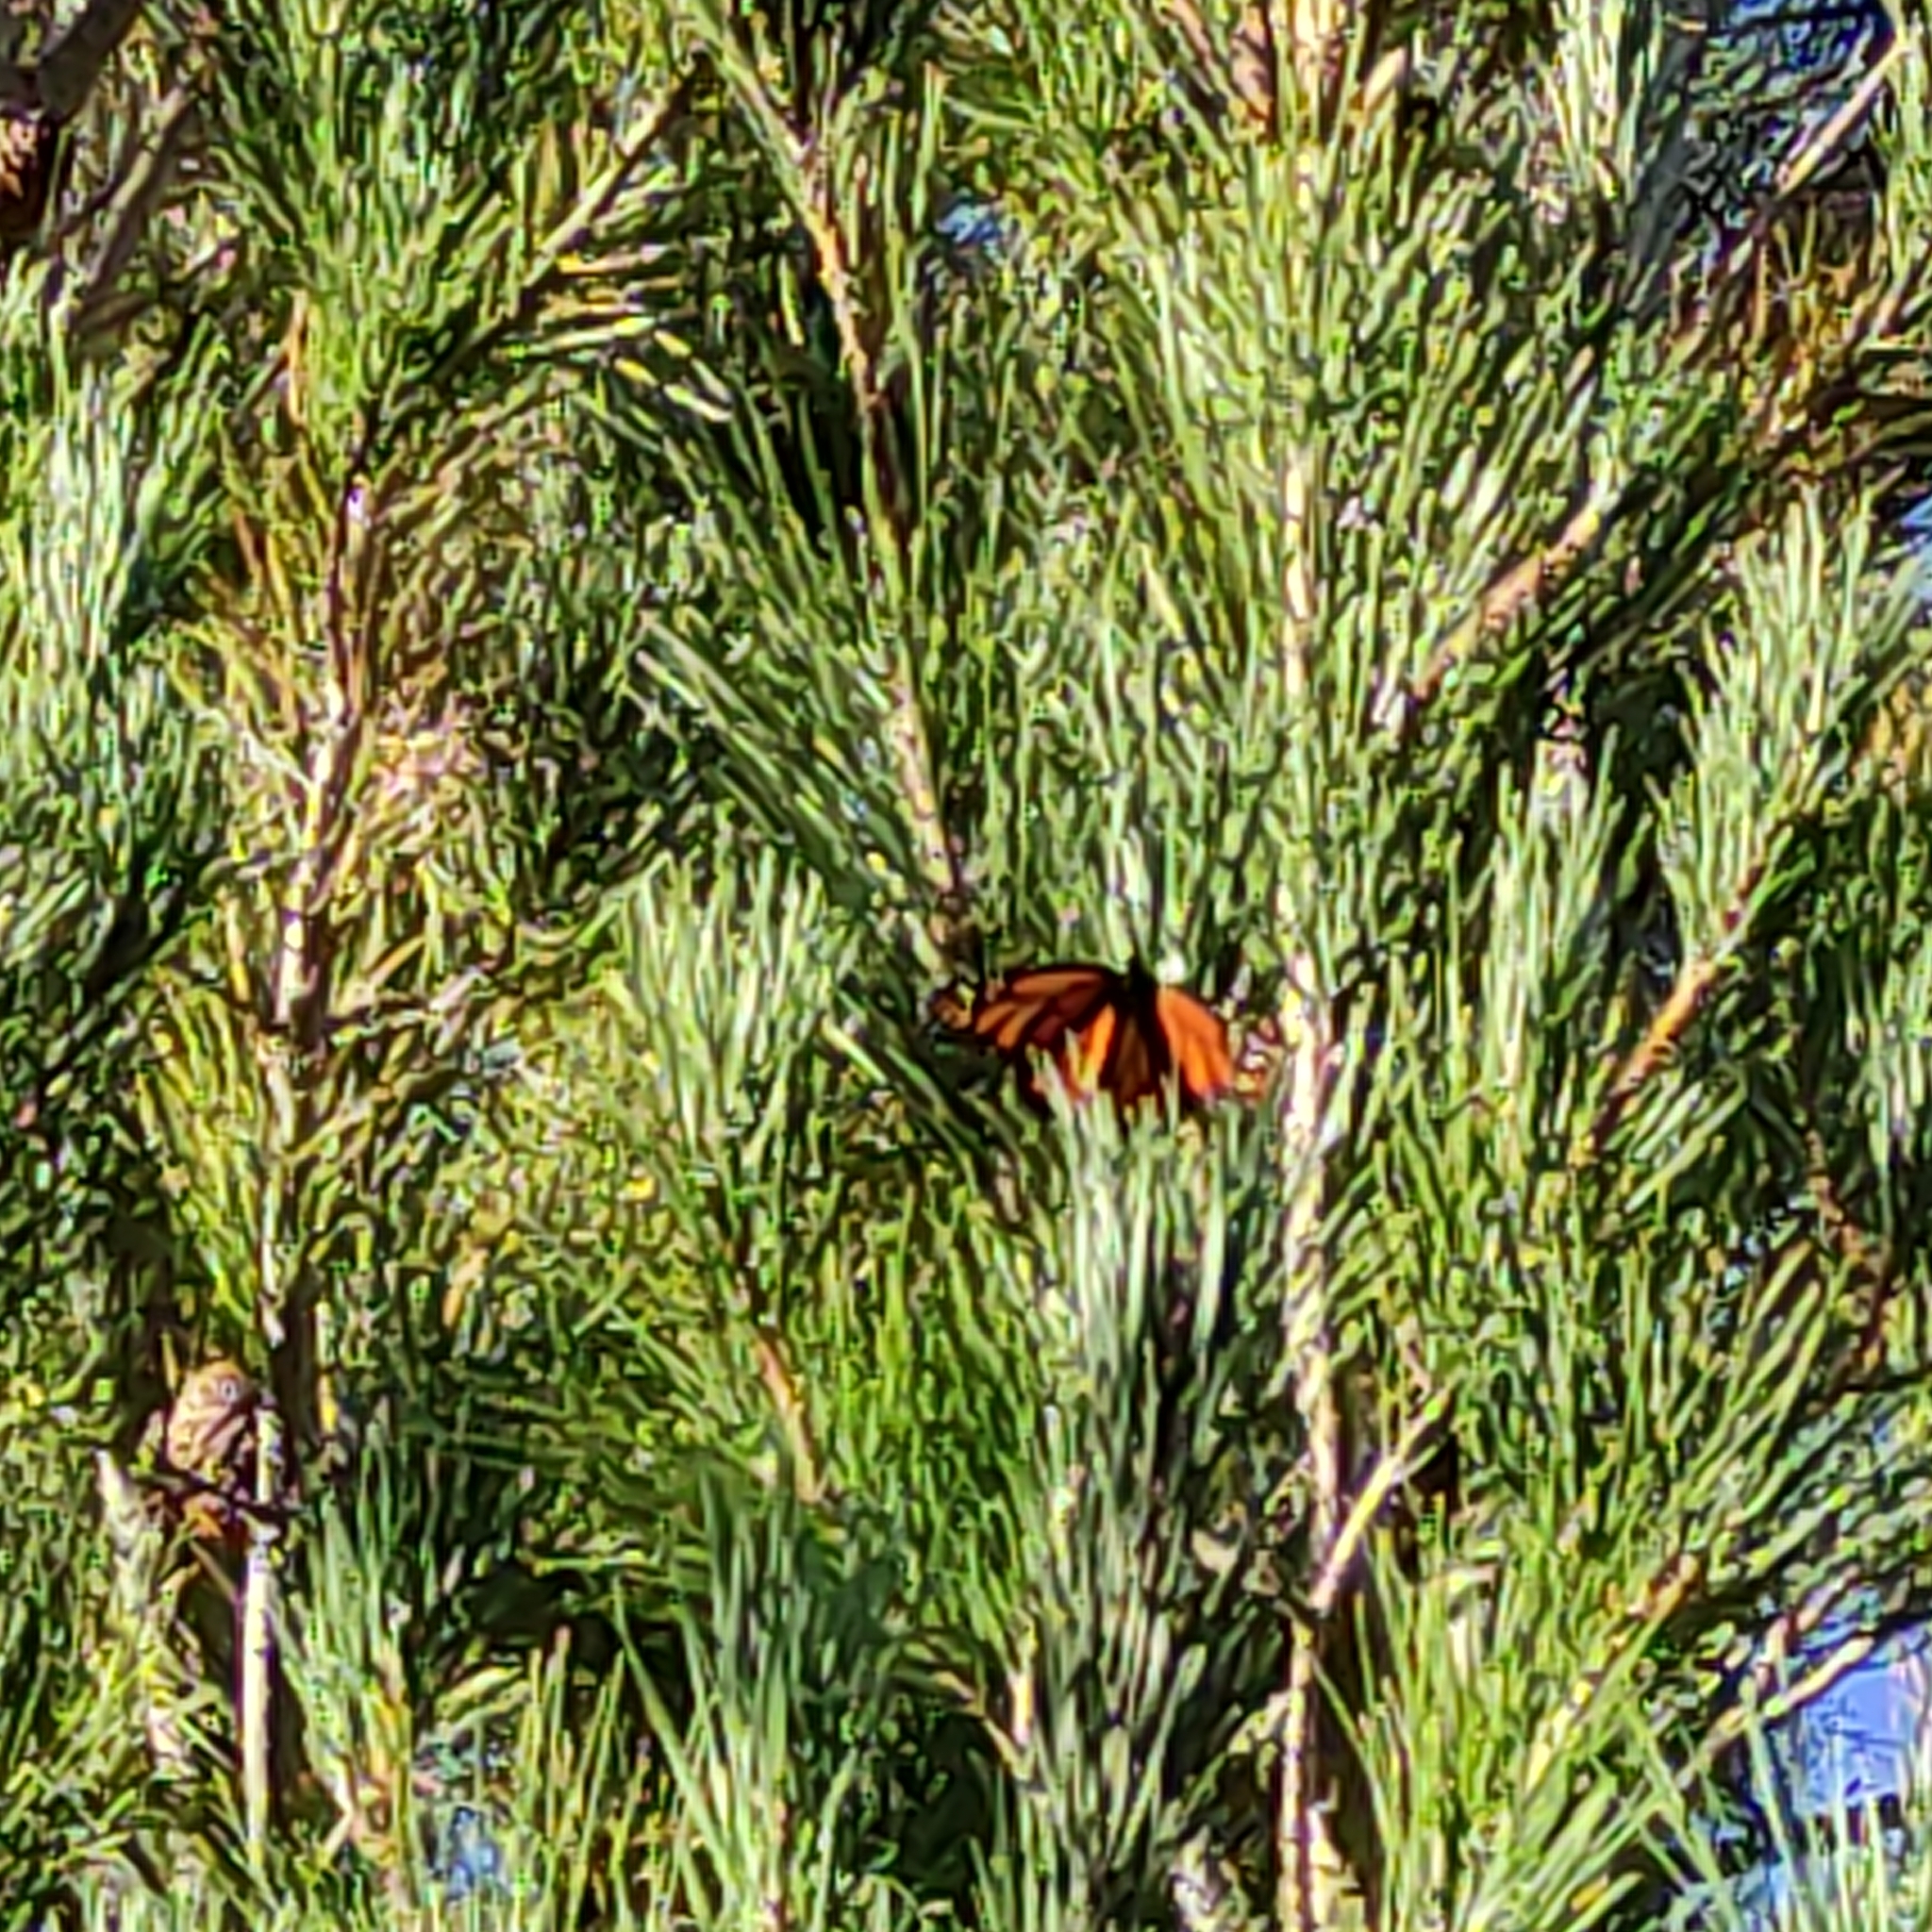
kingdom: Animalia
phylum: Arthropoda
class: Insecta
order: Lepidoptera
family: Nymphalidae
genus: Danaus
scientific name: Danaus plexippus
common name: Monarch
